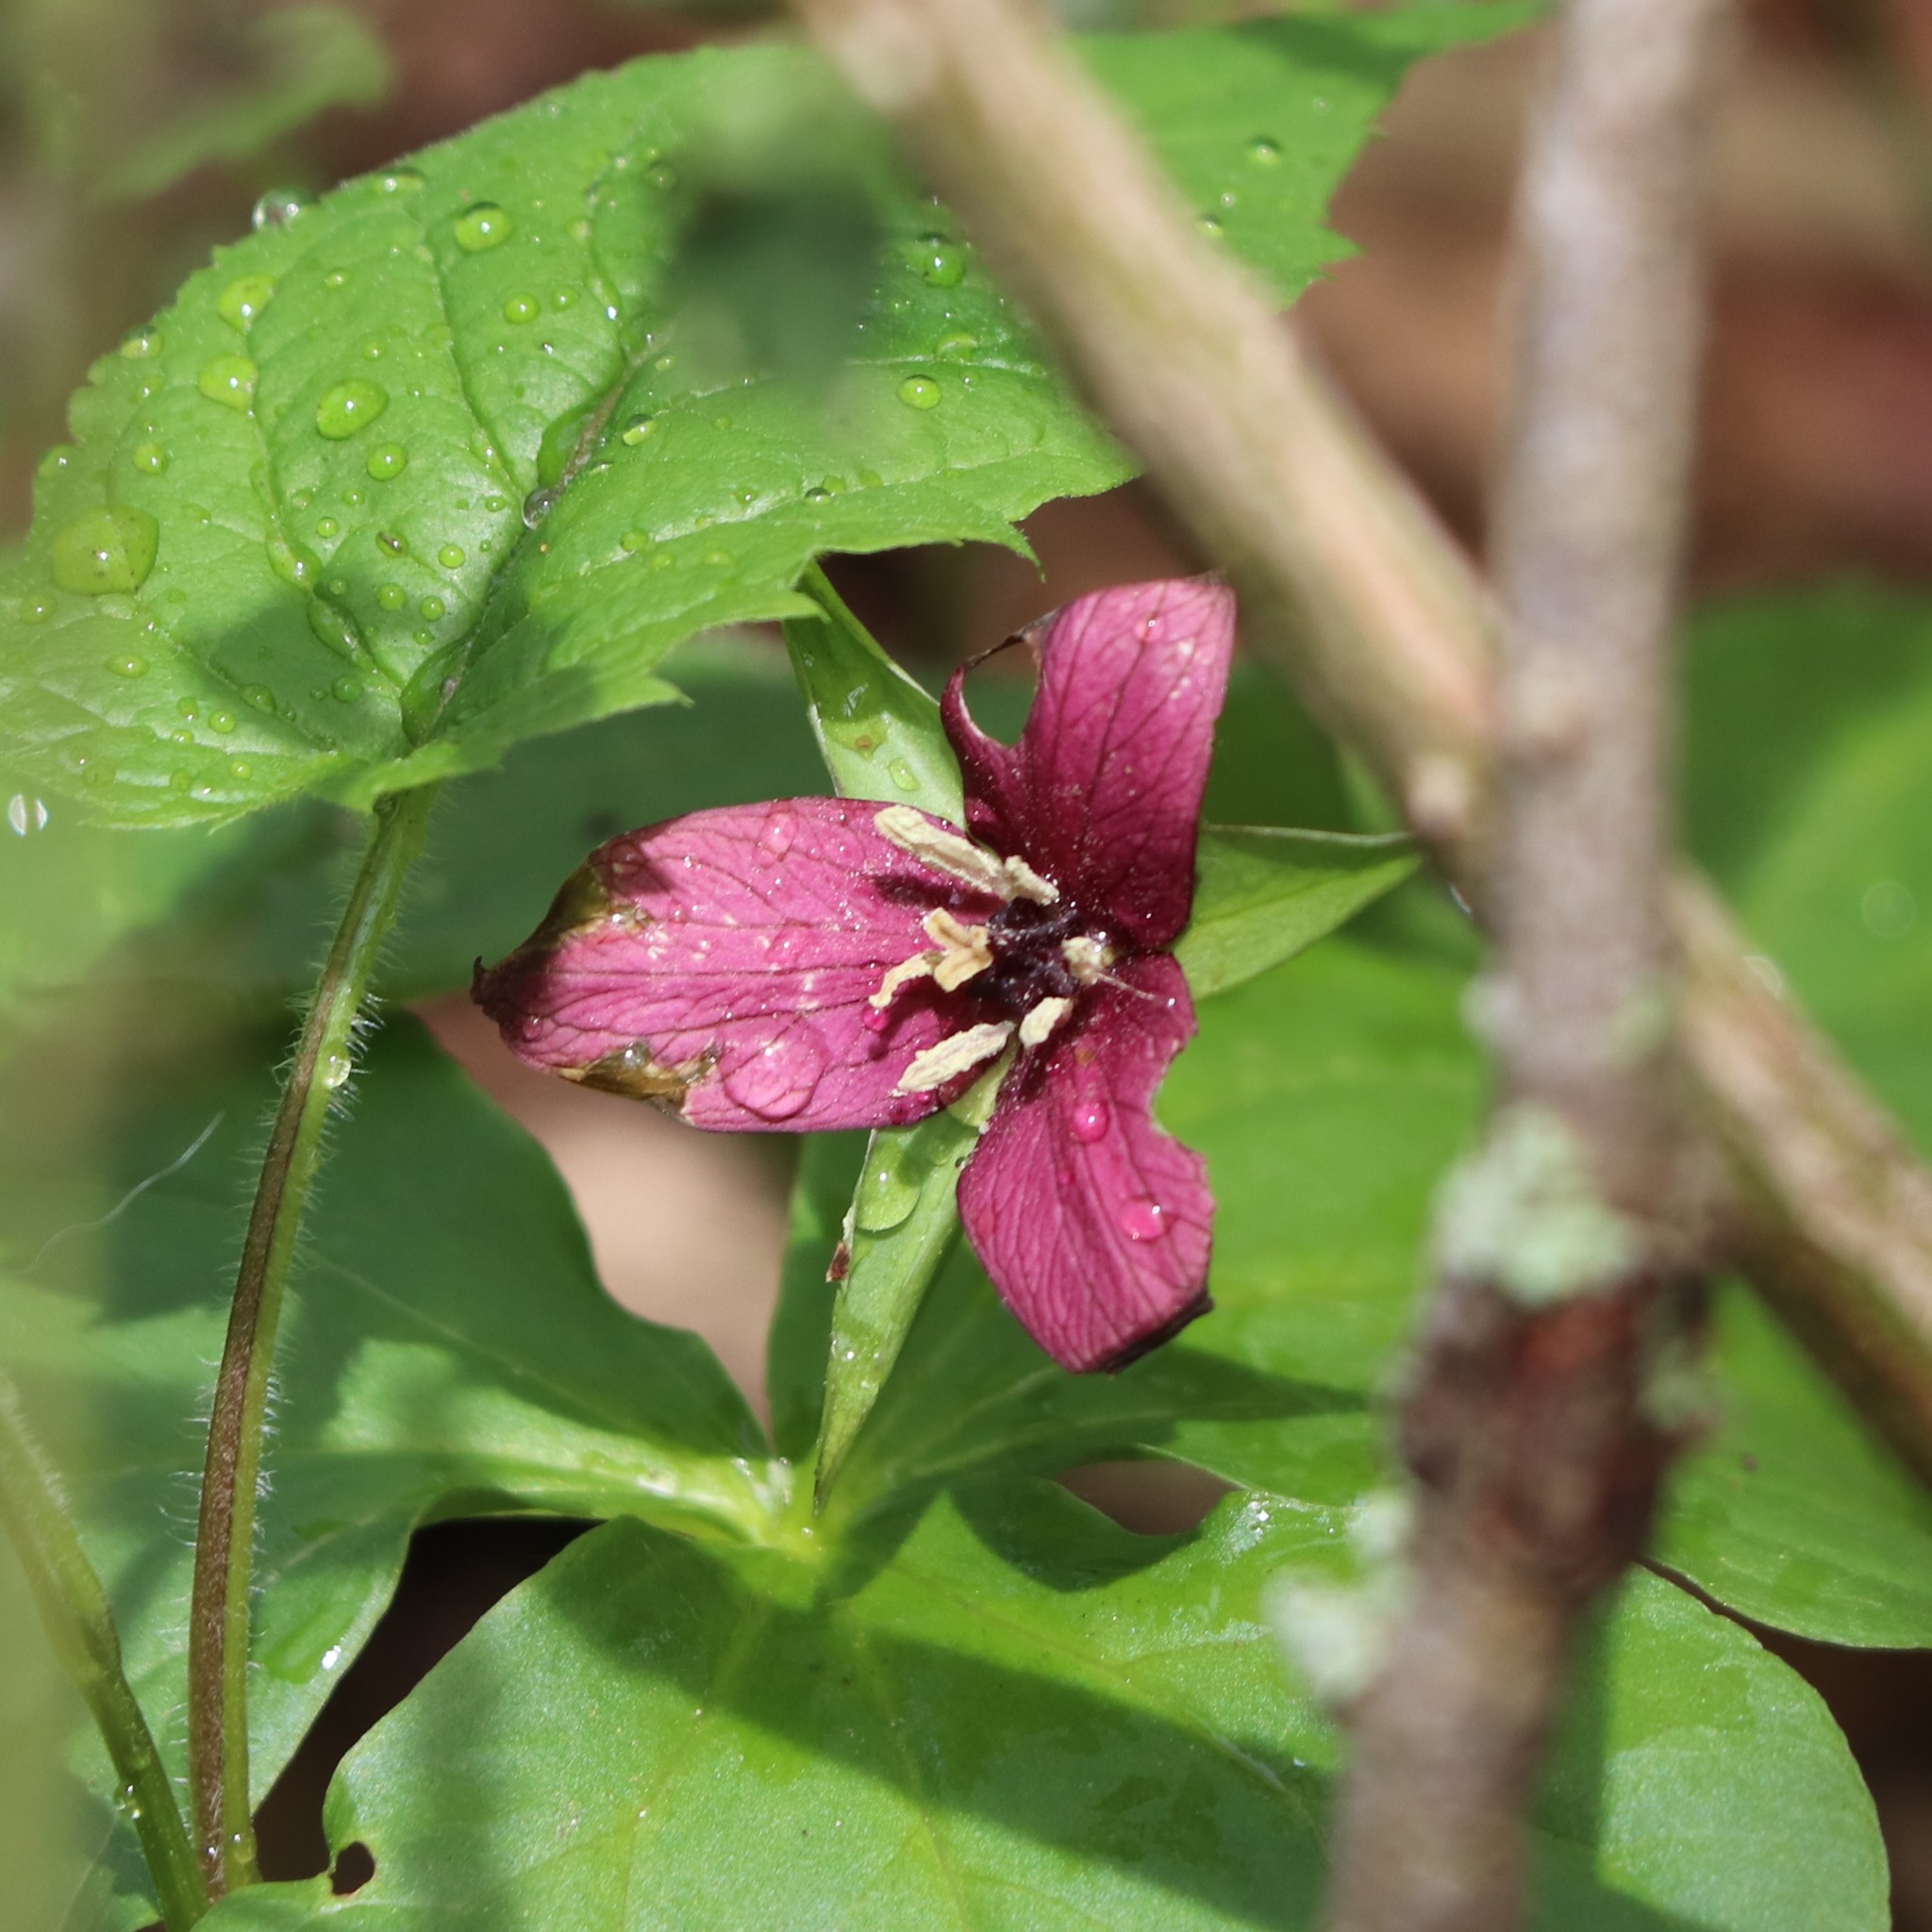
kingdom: Plantae
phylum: Tracheophyta
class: Liliopsida
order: Liliales
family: Melanthiaceae
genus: Trillium
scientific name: Trillium erectum
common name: Purple trillium
